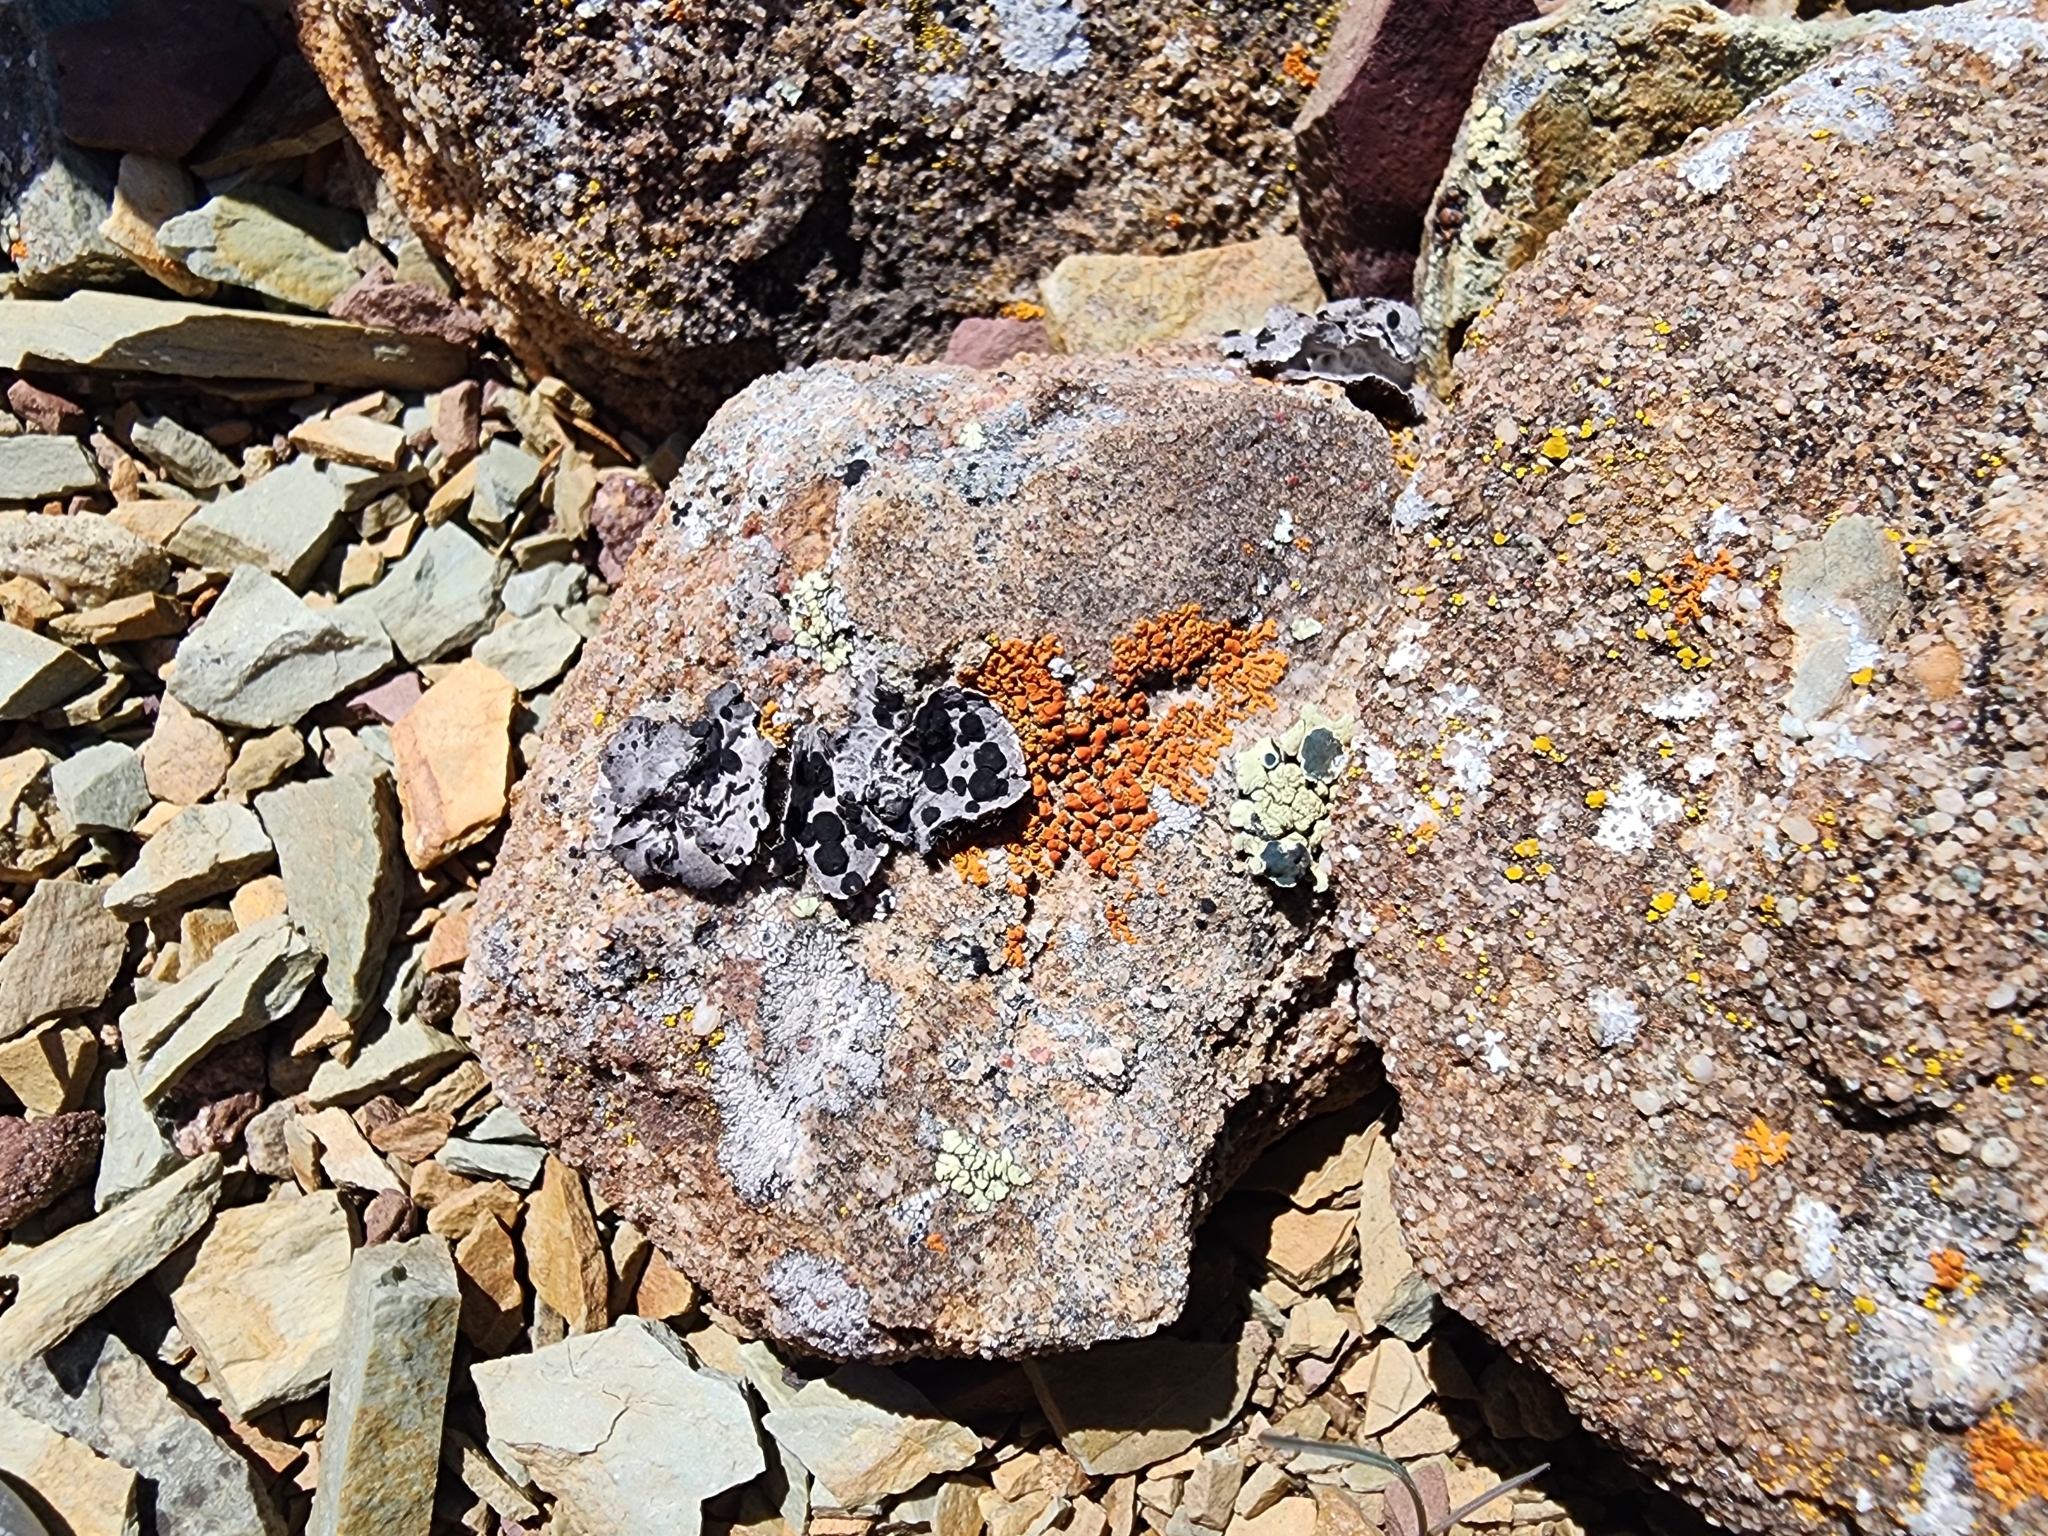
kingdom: Fungi
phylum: Ascomycota
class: Lecanoromycetes
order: Umbilicariales
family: Umbilicariaceae
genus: Umbilicaria
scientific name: Umbilicaria cylindrica
